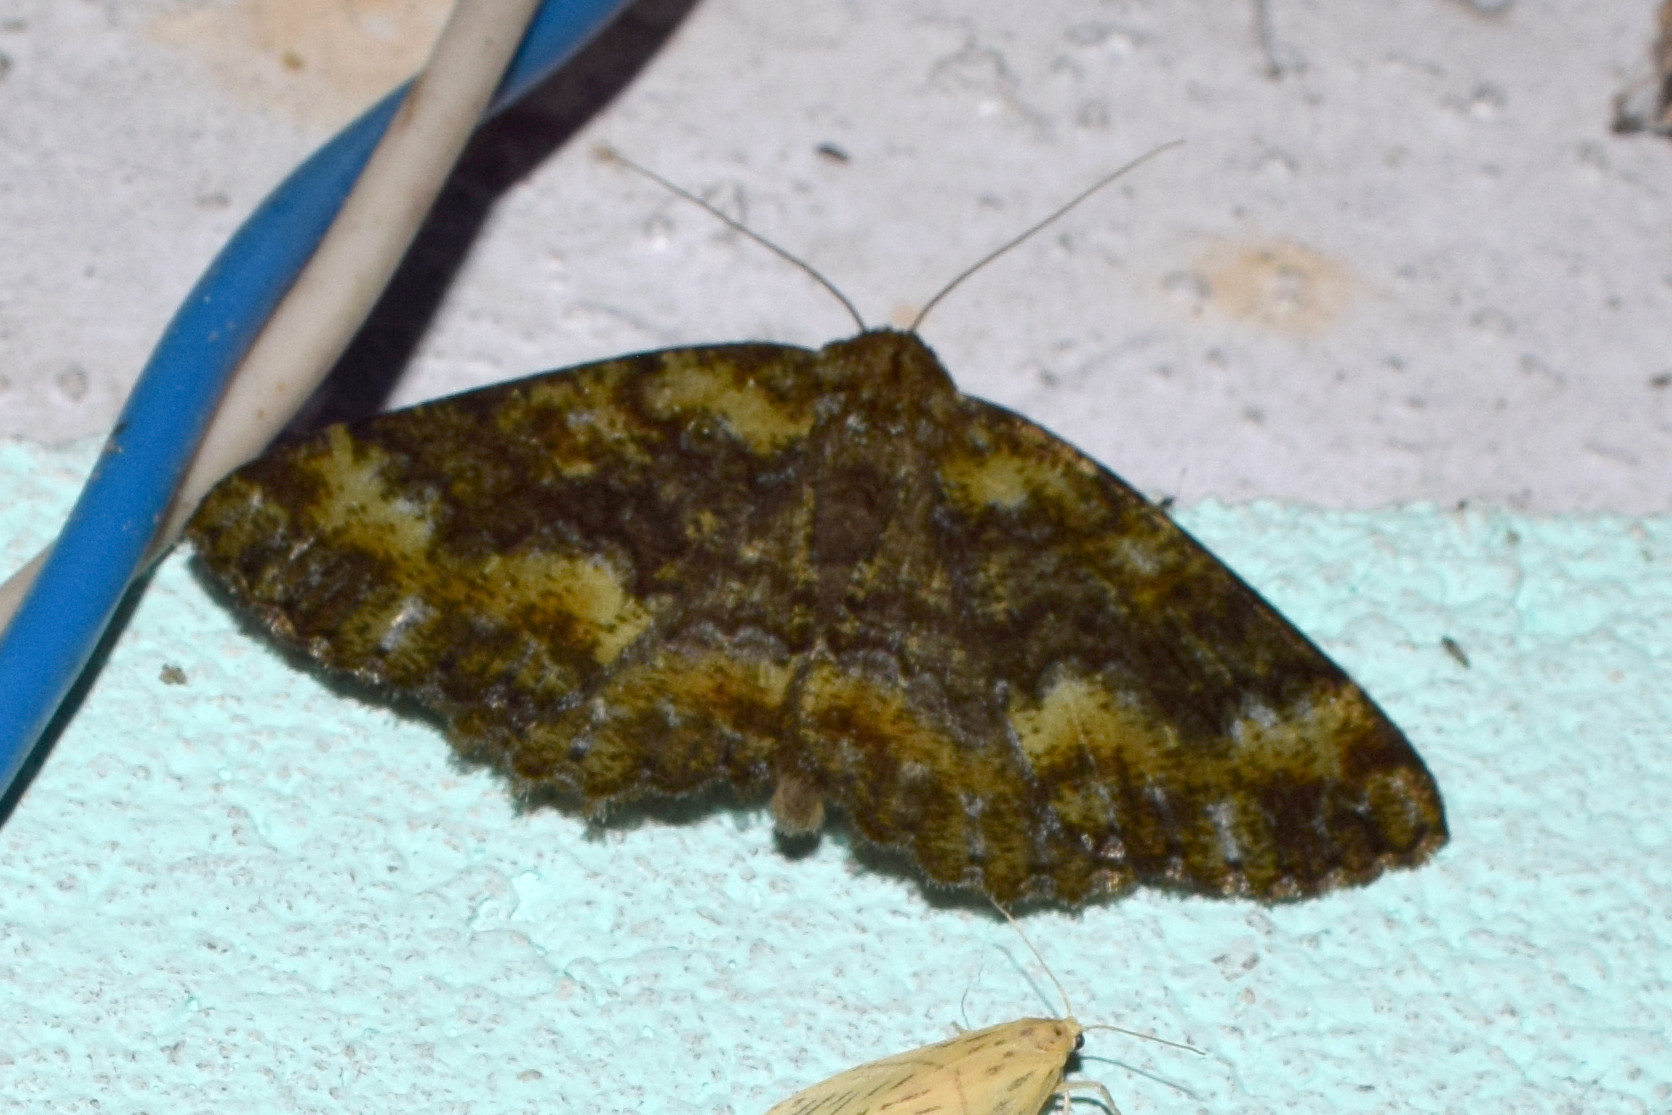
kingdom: Animalia
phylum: Arthropoda
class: Insecta
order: Lepidoptera
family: Geometridae
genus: Hirasa
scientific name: Hirasa muscosaria
